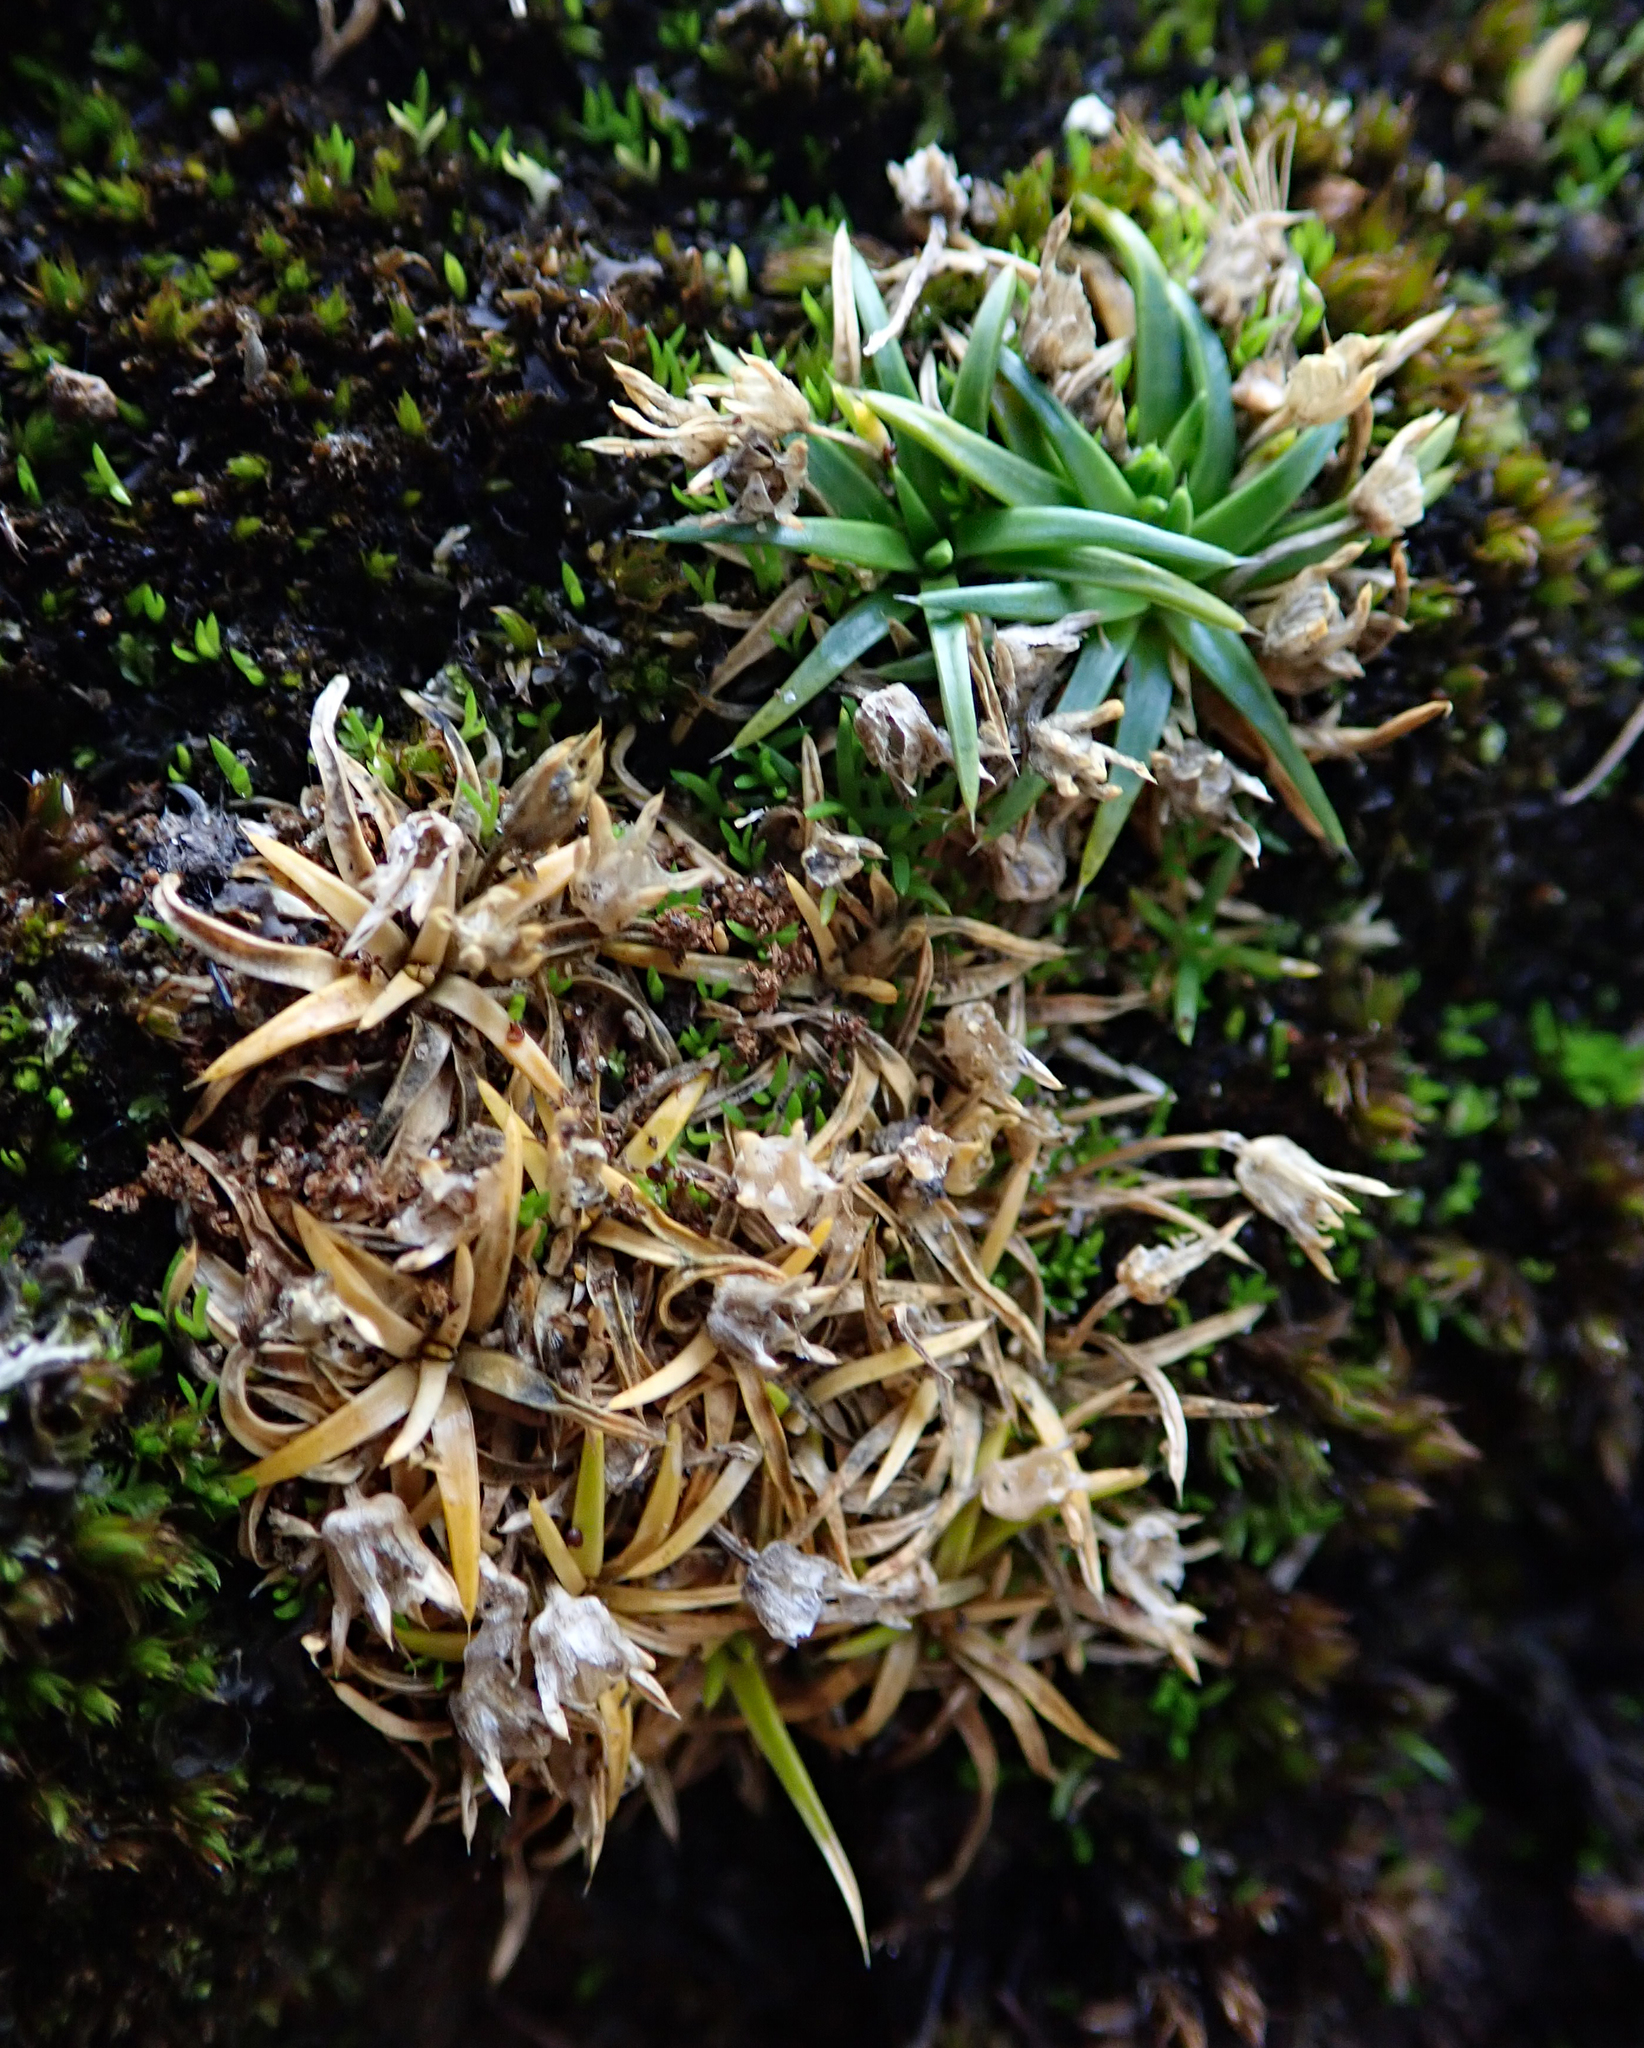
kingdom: Plantae
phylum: Tracheophyta
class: Magnoliopsida
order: Caryophyllales
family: Caryophyllaceae
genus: Colobanthus
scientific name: Colobanthus muelleri
